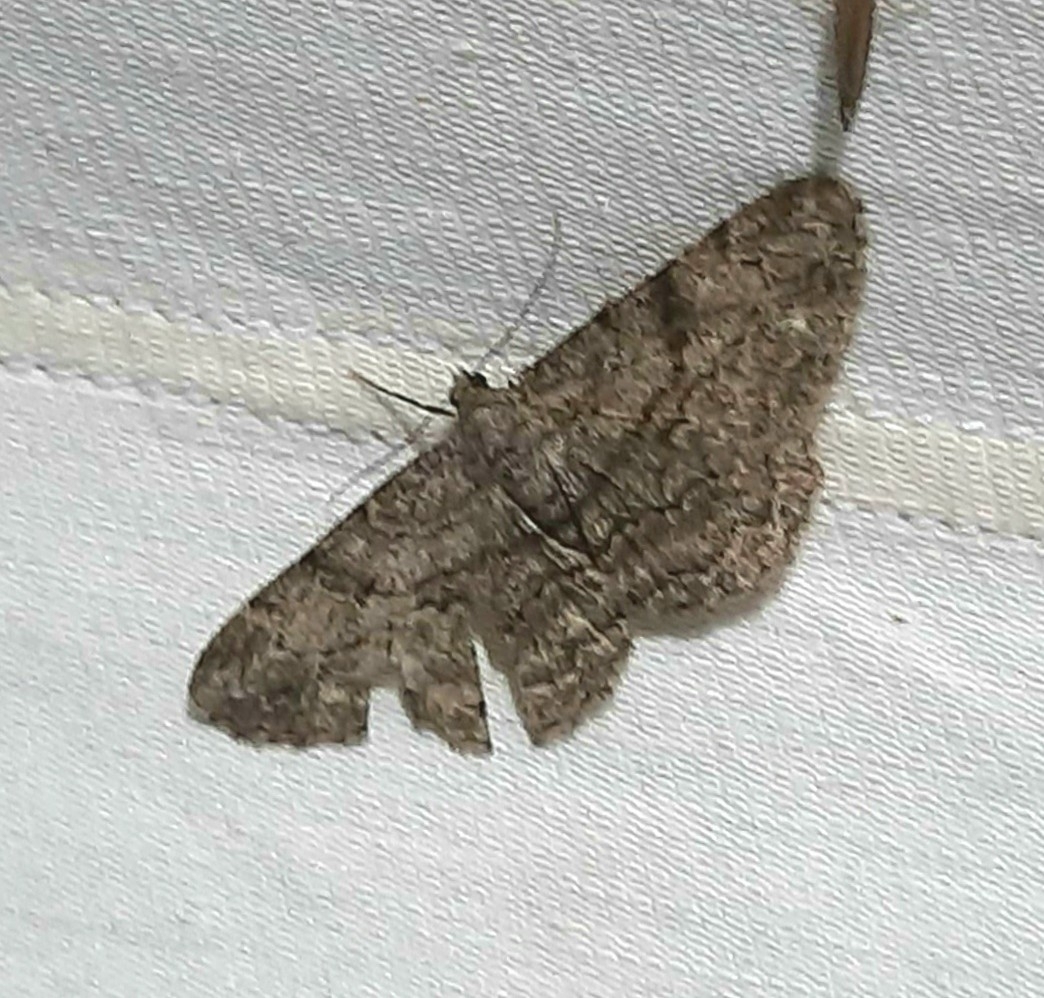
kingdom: Animalia
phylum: Arthropoda
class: Insecta
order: Lepidoptera
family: Geometridae
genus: Peribatodes
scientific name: Peribatodes rhomboidaria
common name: Willow beauty
